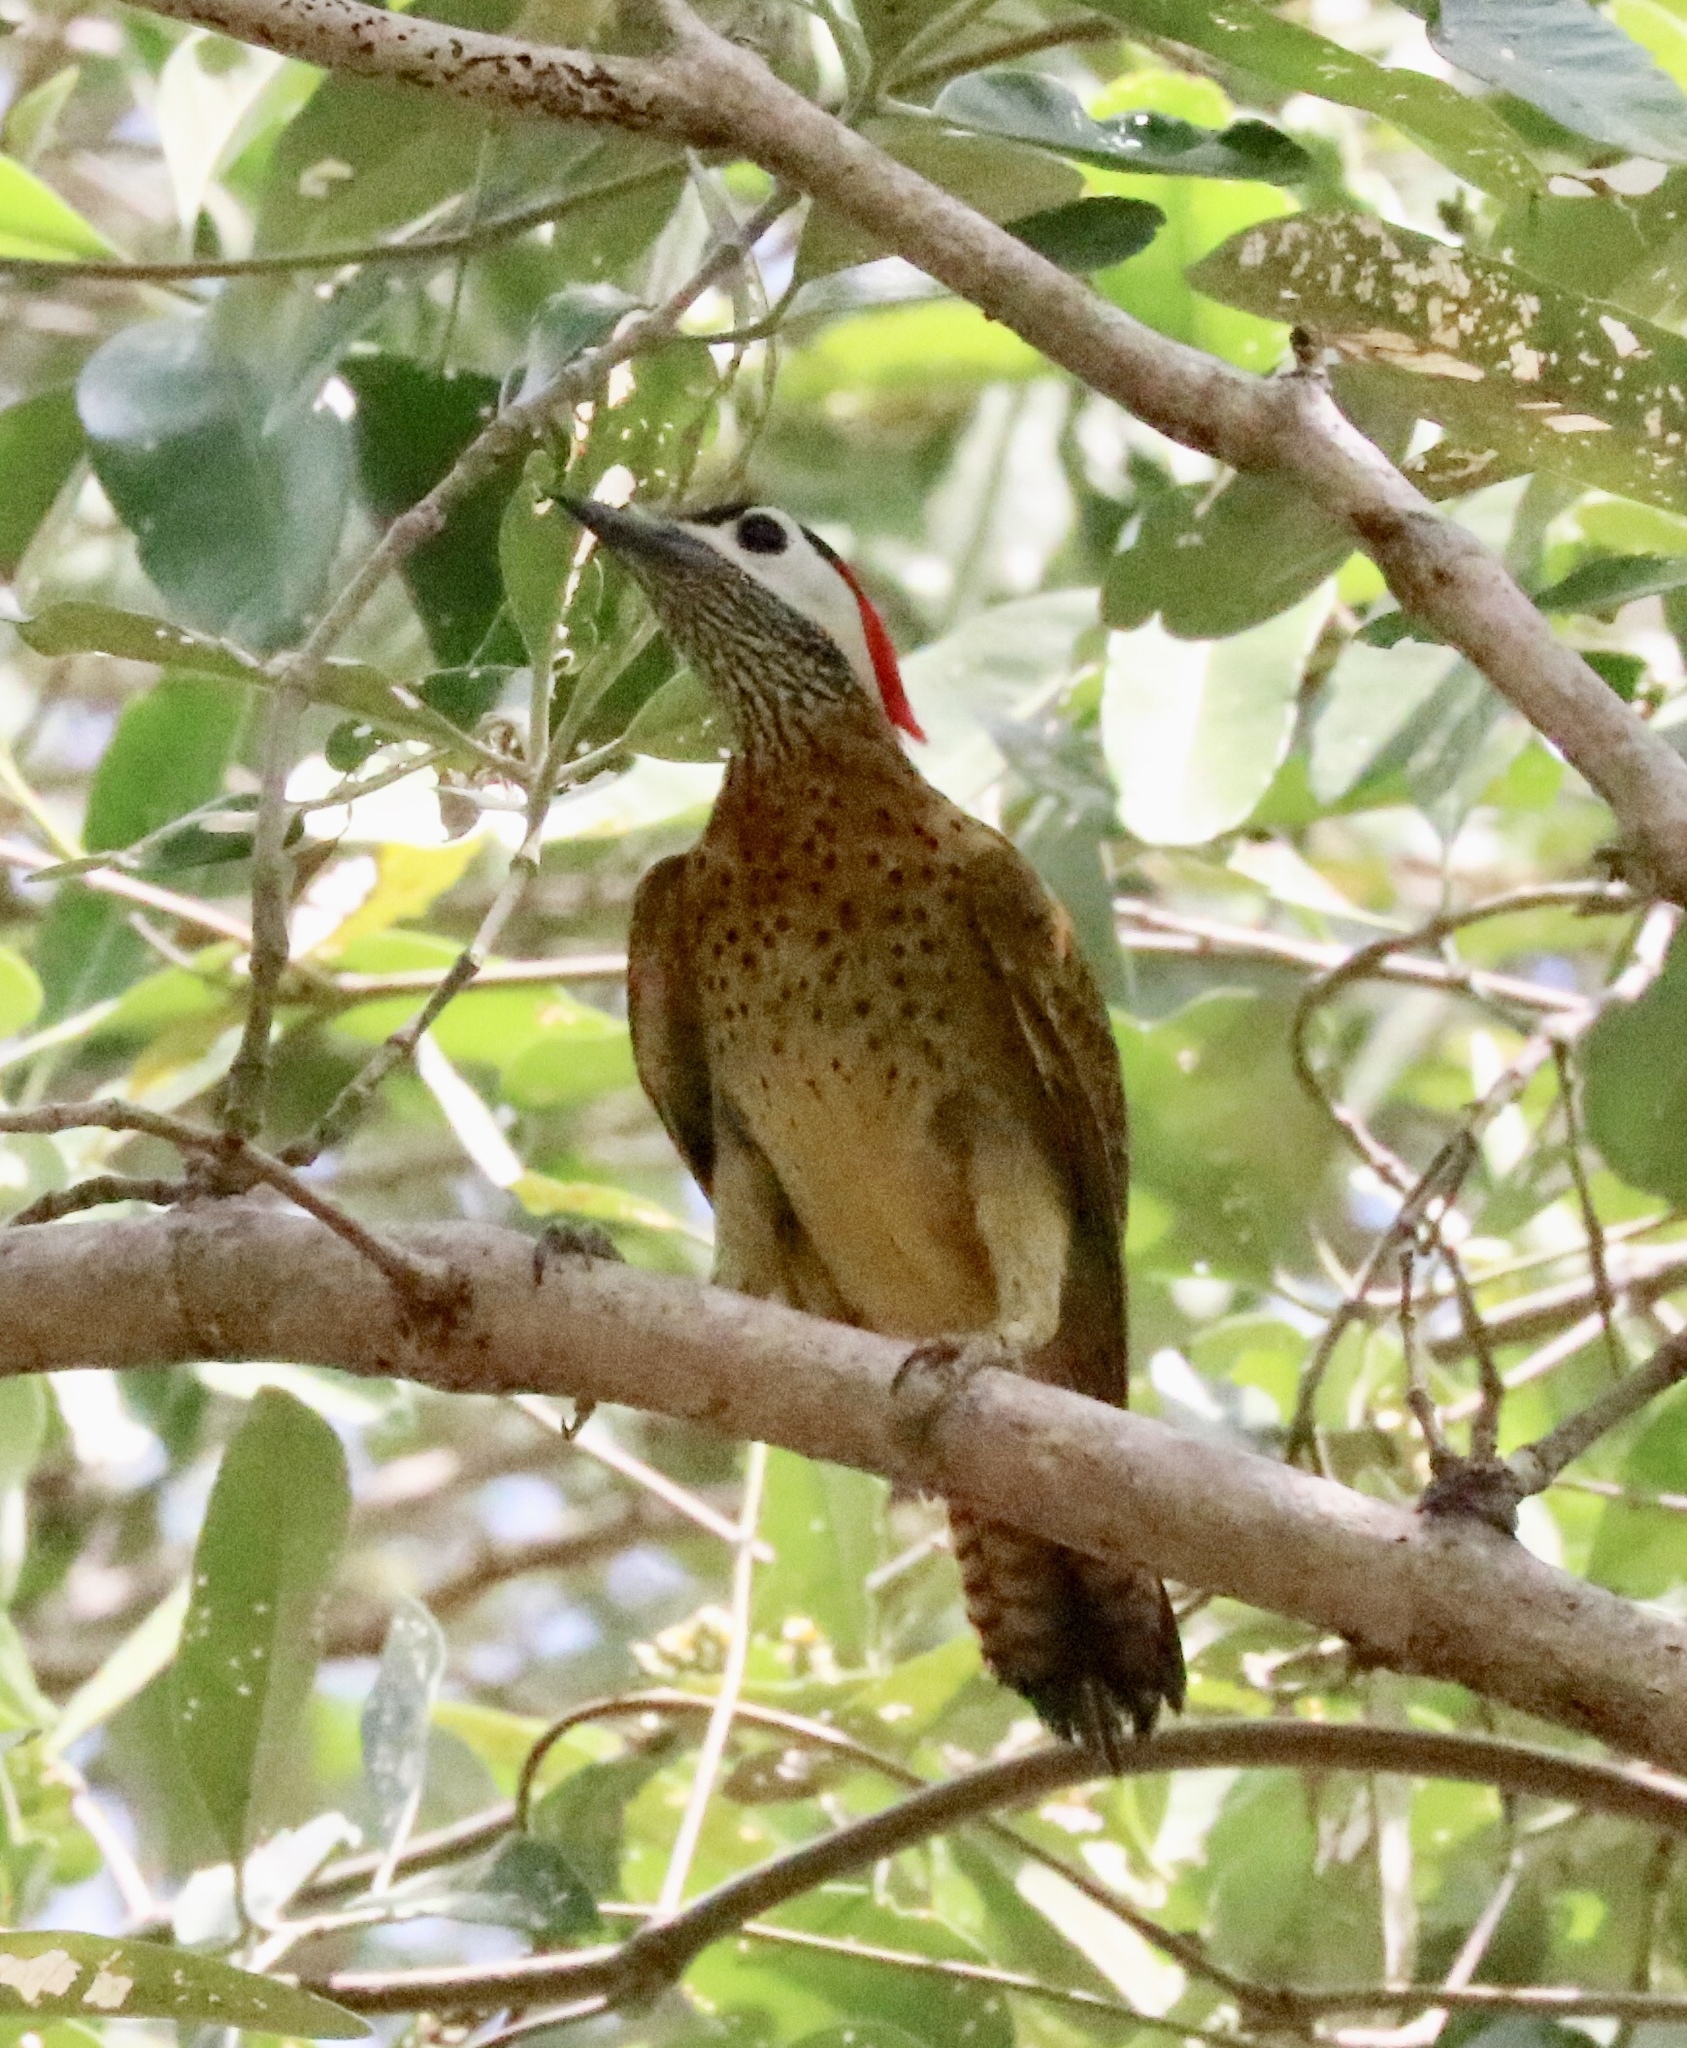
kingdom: Animalia
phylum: Chordata
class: Aves
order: Piciformes
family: Picidae
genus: Colaptes
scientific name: Colaptes punctigula
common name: Spot-breasted woodpecker
